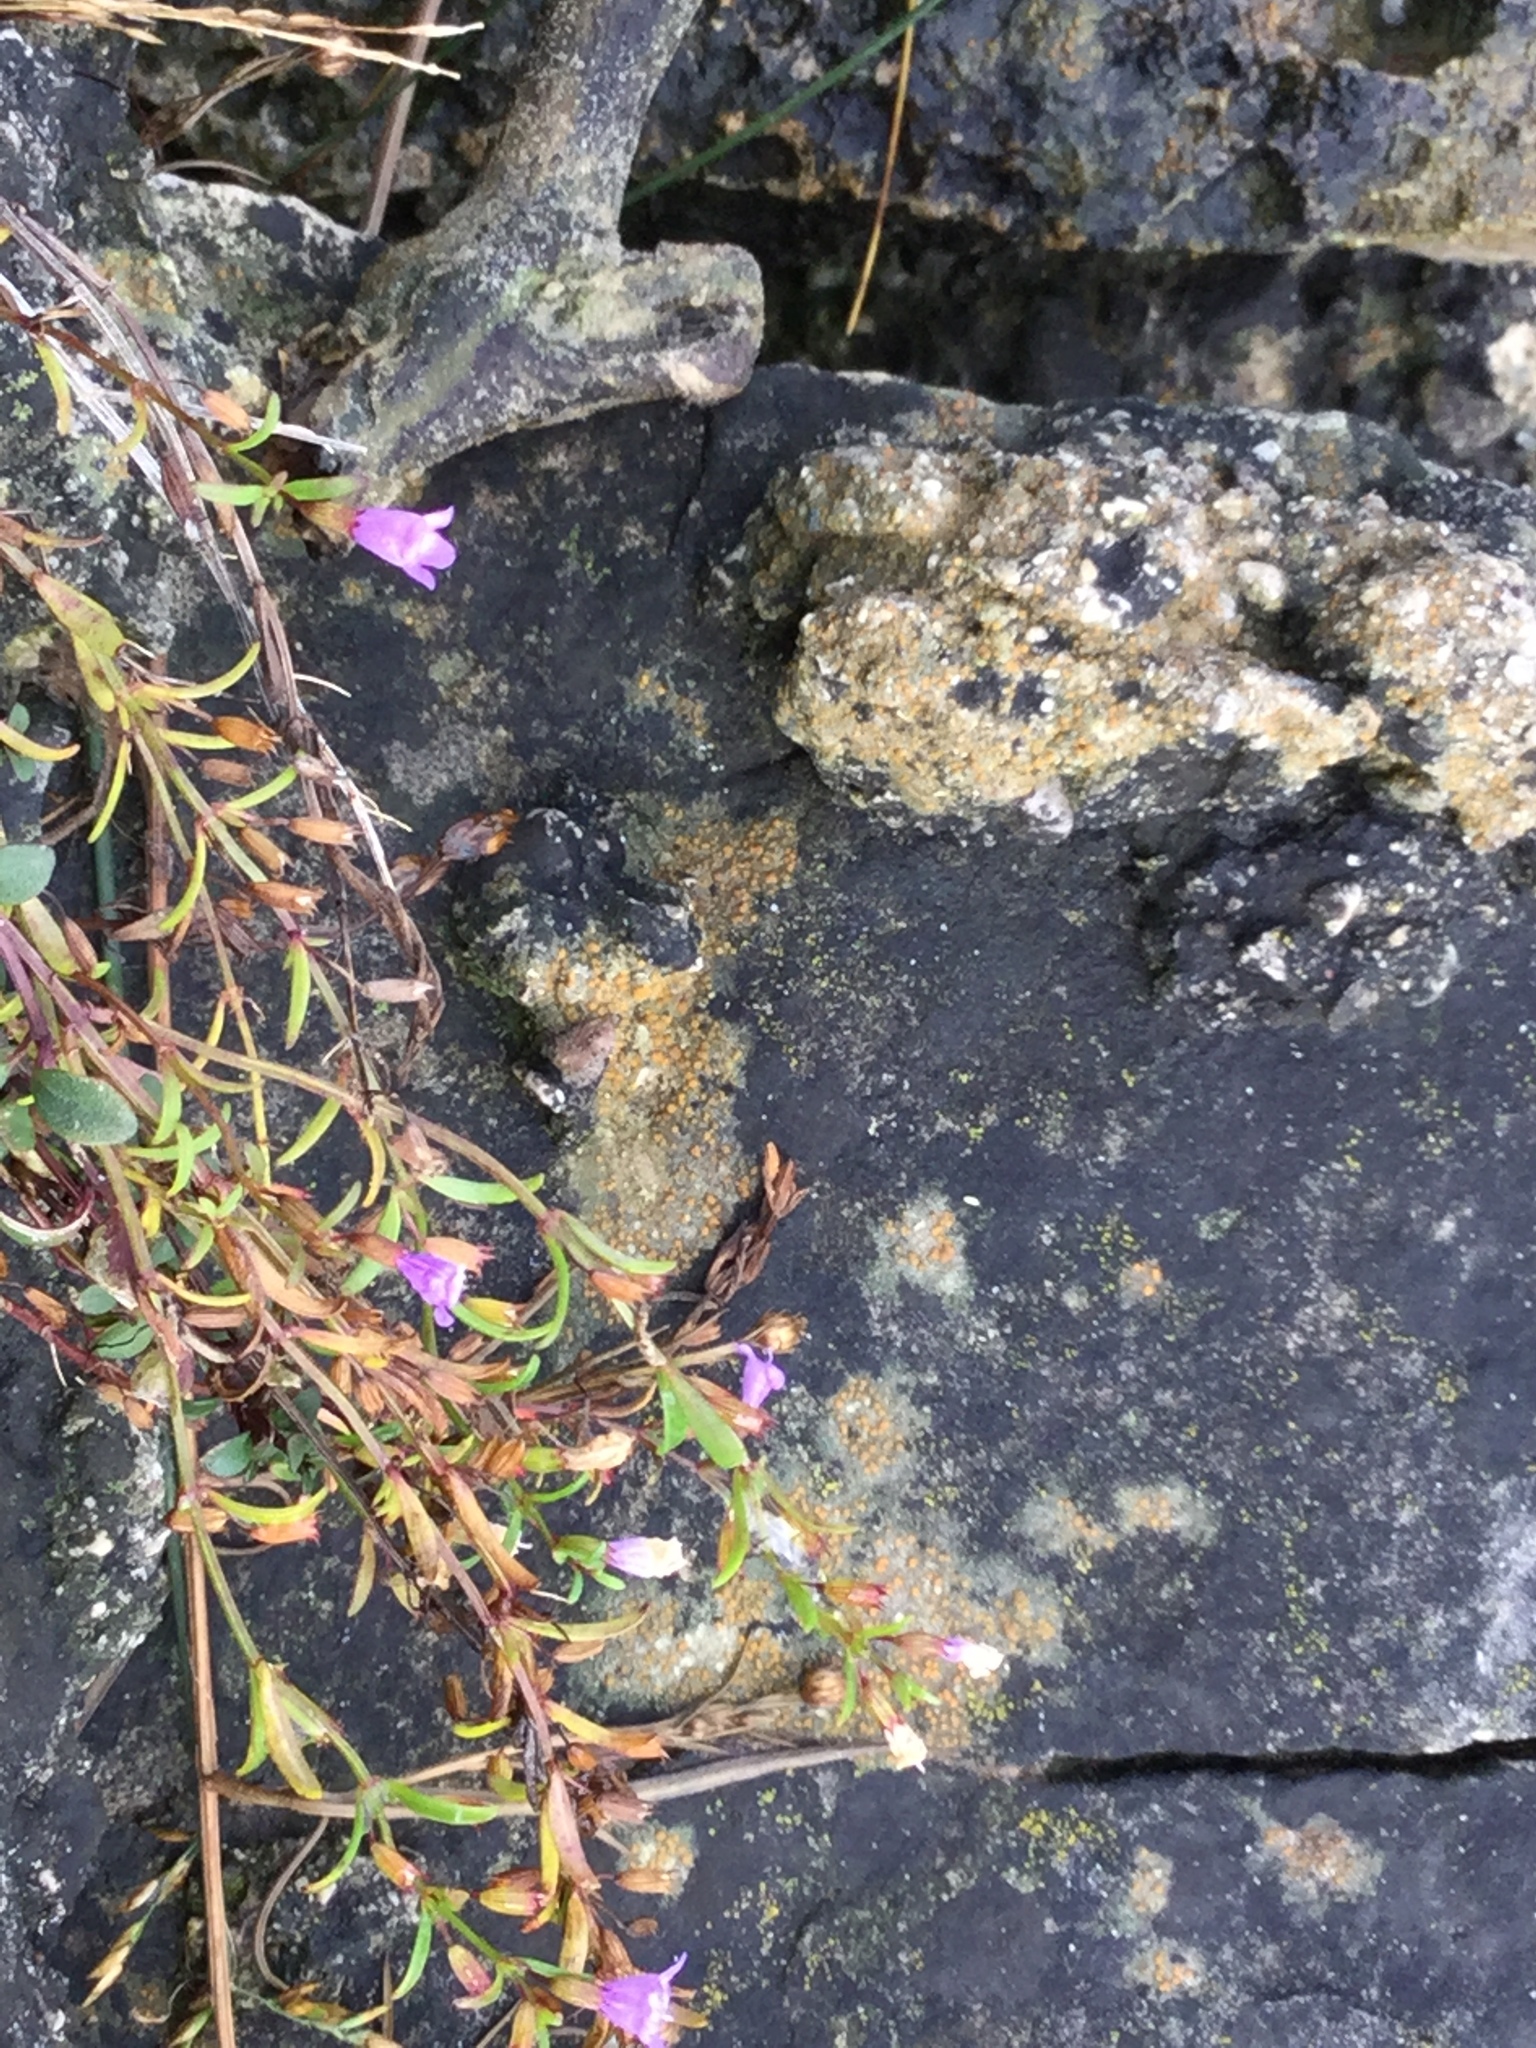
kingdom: Plantae
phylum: Tracheophyta
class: Magnoliopsida
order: Lamiales
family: Lamiaceae
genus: Clinopodium
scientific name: Clinopodium arkansanum
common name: Limestone calamint
